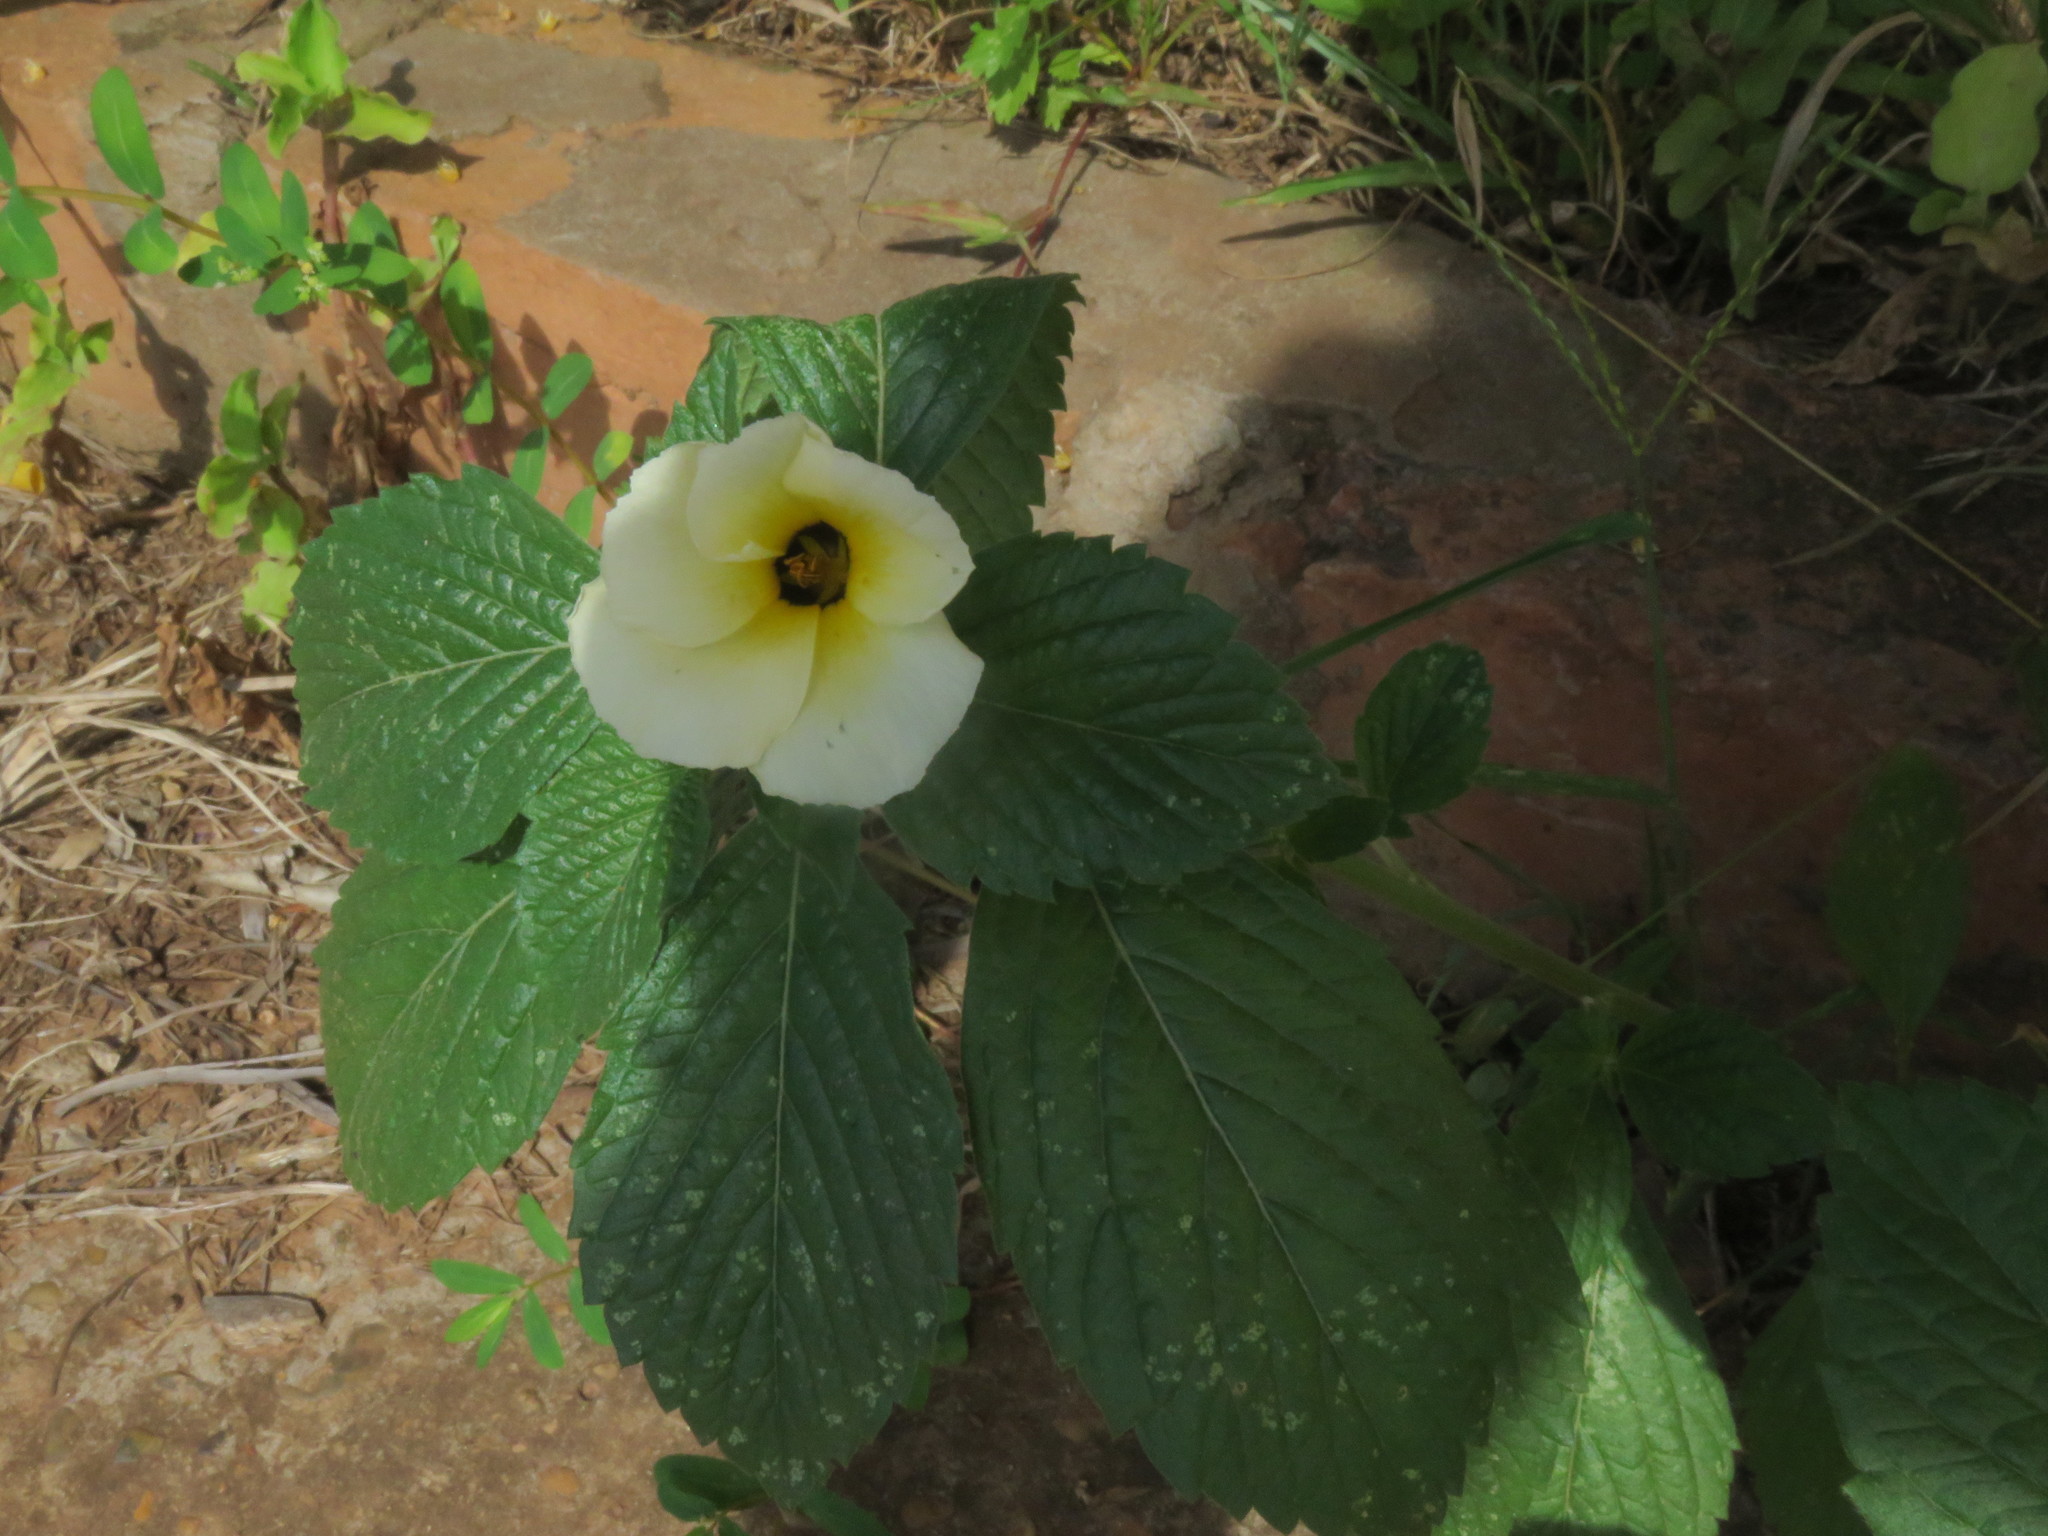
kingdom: Plantae
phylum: Tracheophyta
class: Magnoliopsida
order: Malpighiales
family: Turneraceae
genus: Turnera
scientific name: Turnera subulata
